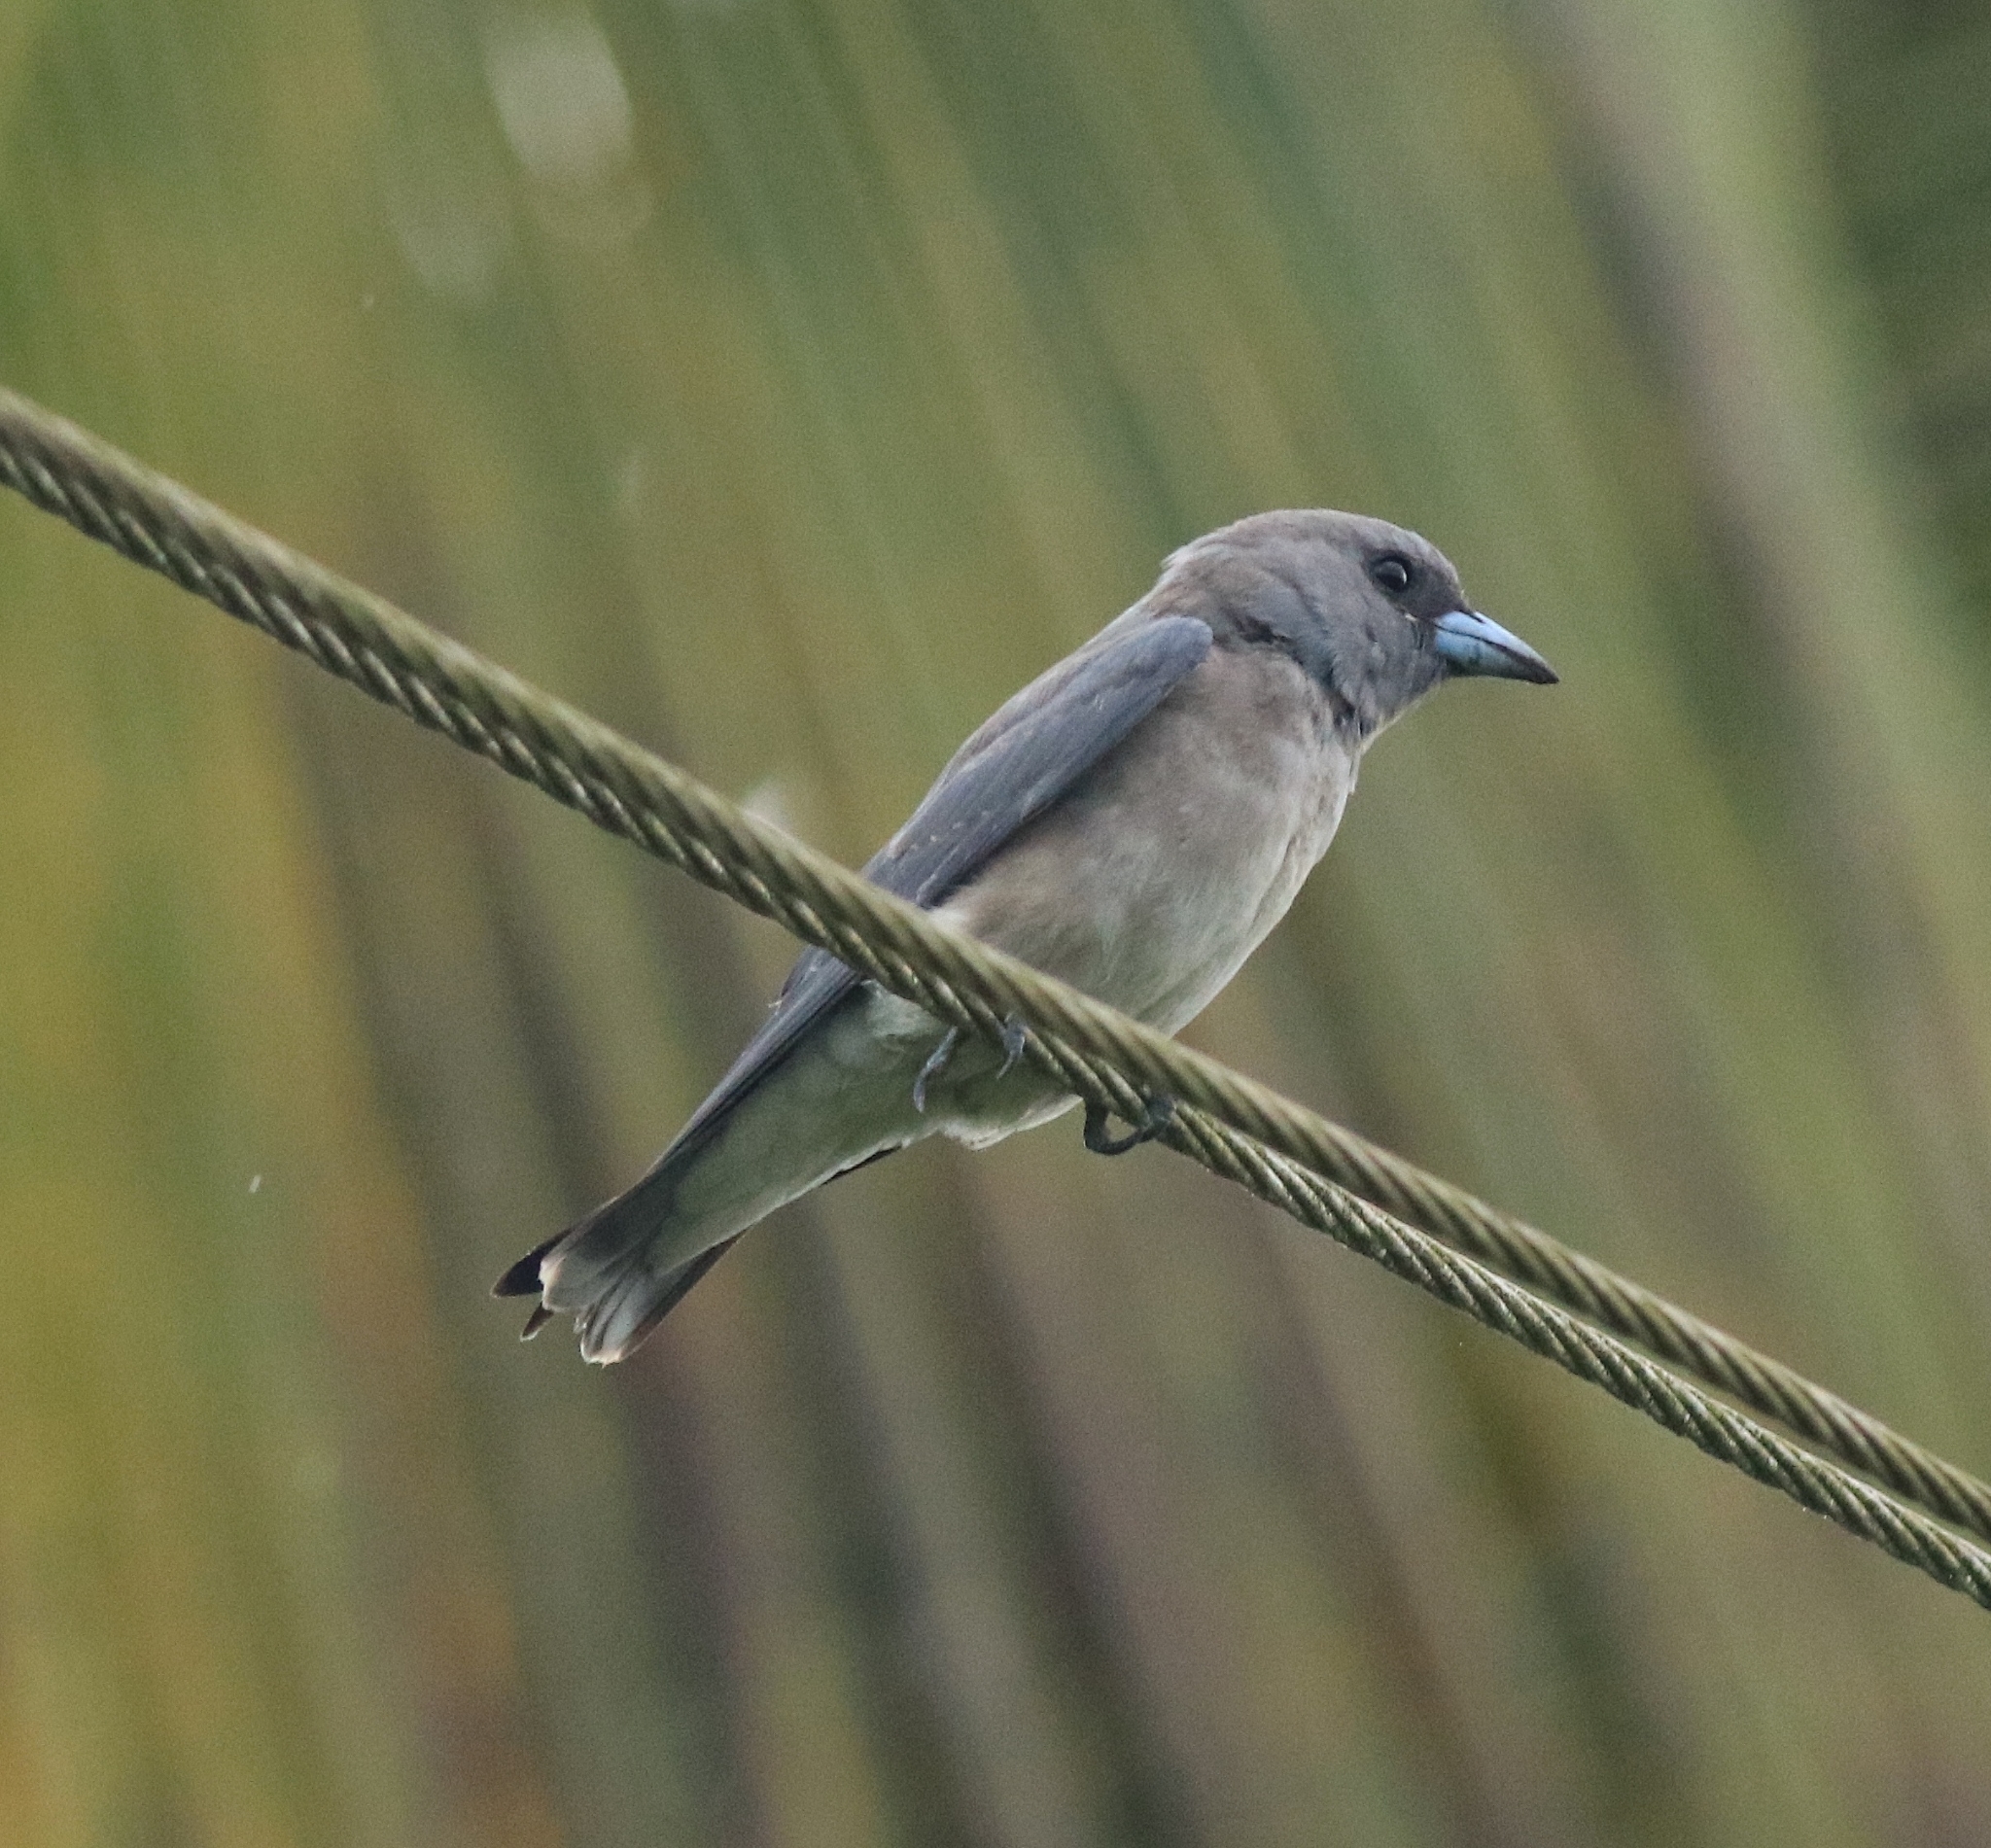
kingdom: Animalia
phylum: Chordata
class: Aves
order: Passeriformes
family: Artamidae
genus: Artamus
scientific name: Artamus fuscus
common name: Ashy woodswallow
